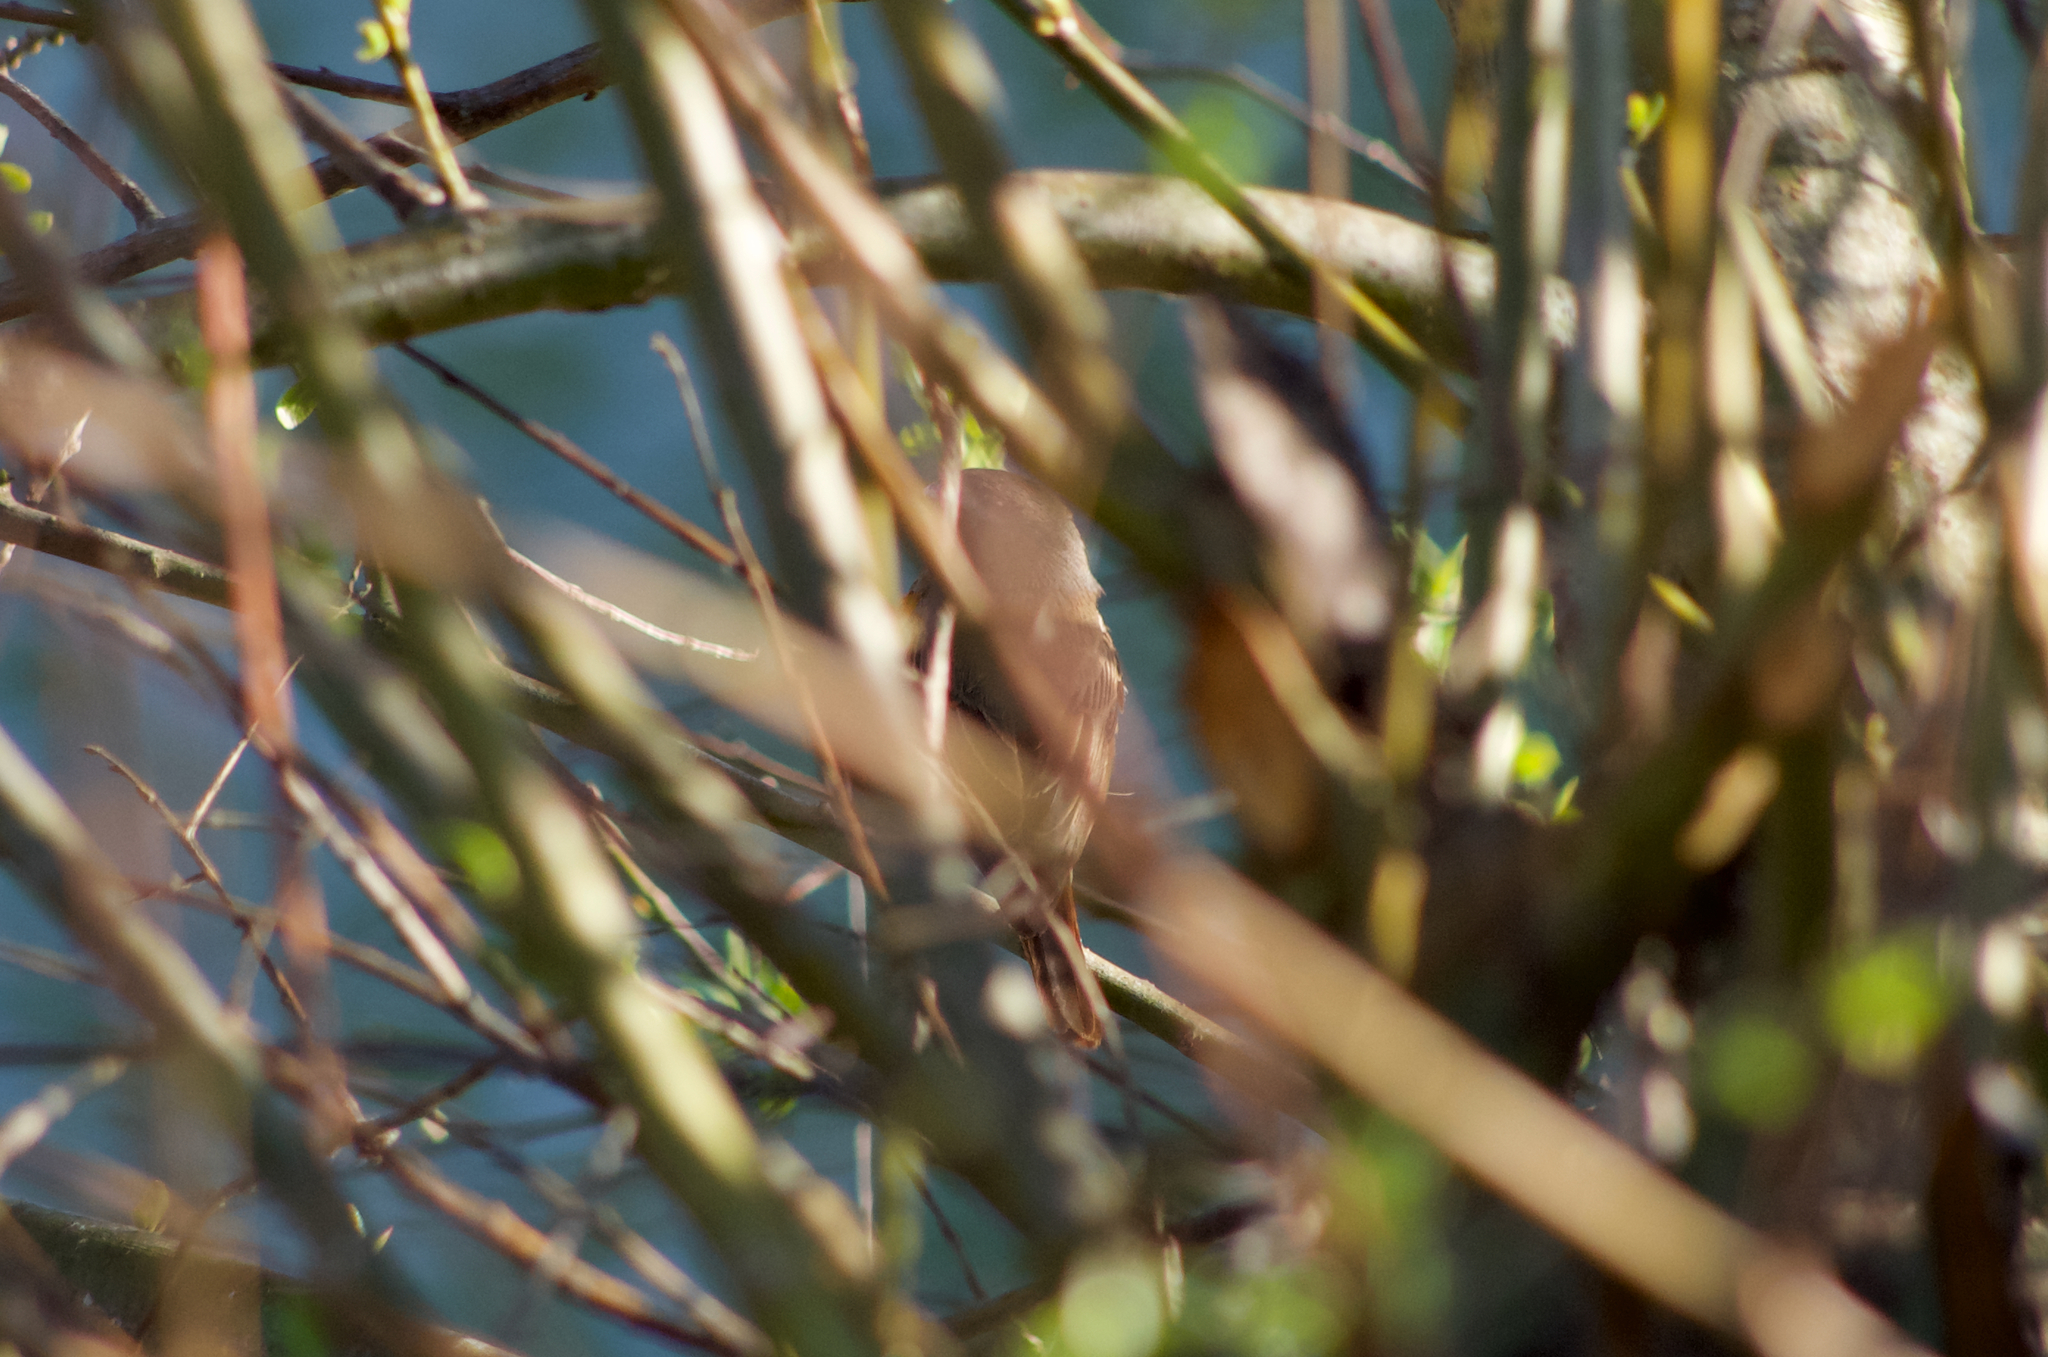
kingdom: Animalia
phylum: Chordata
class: Aves
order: Passeriformes
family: Muscicapidae
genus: Phoenicurus
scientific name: Phoenicurus phoenicurus
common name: Common redstart
